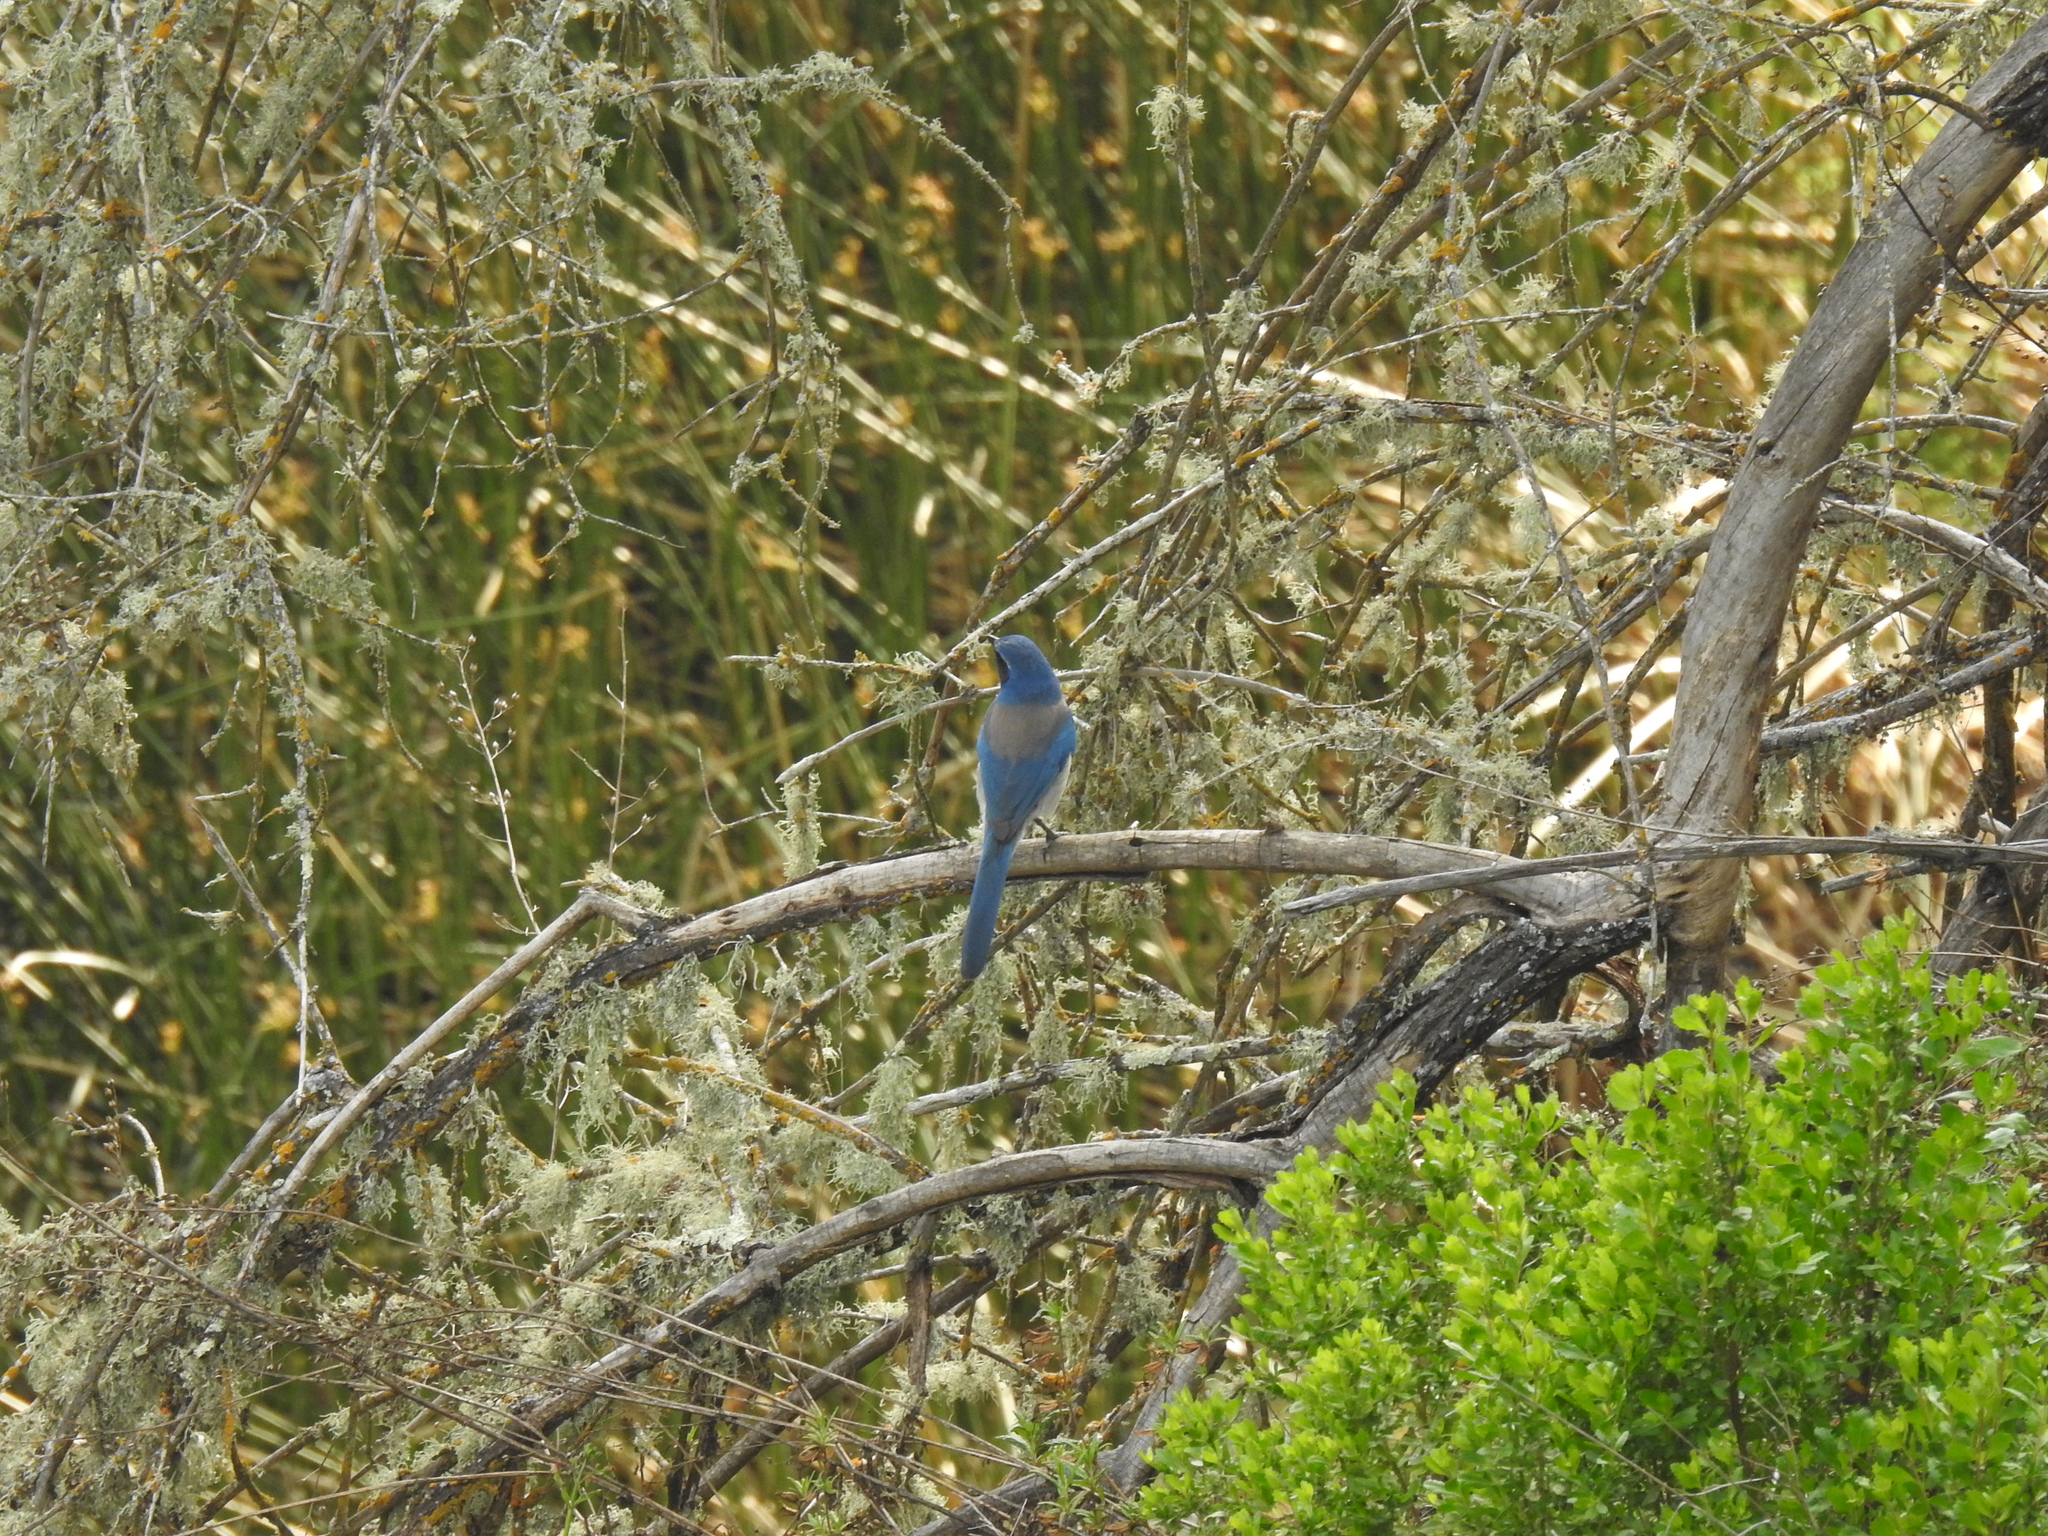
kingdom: Animalia
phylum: Chordata
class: Aves
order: Passeriformes
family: Corvidae
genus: Aphelocoma
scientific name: Aphelocoma californica
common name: California scrub-jay
